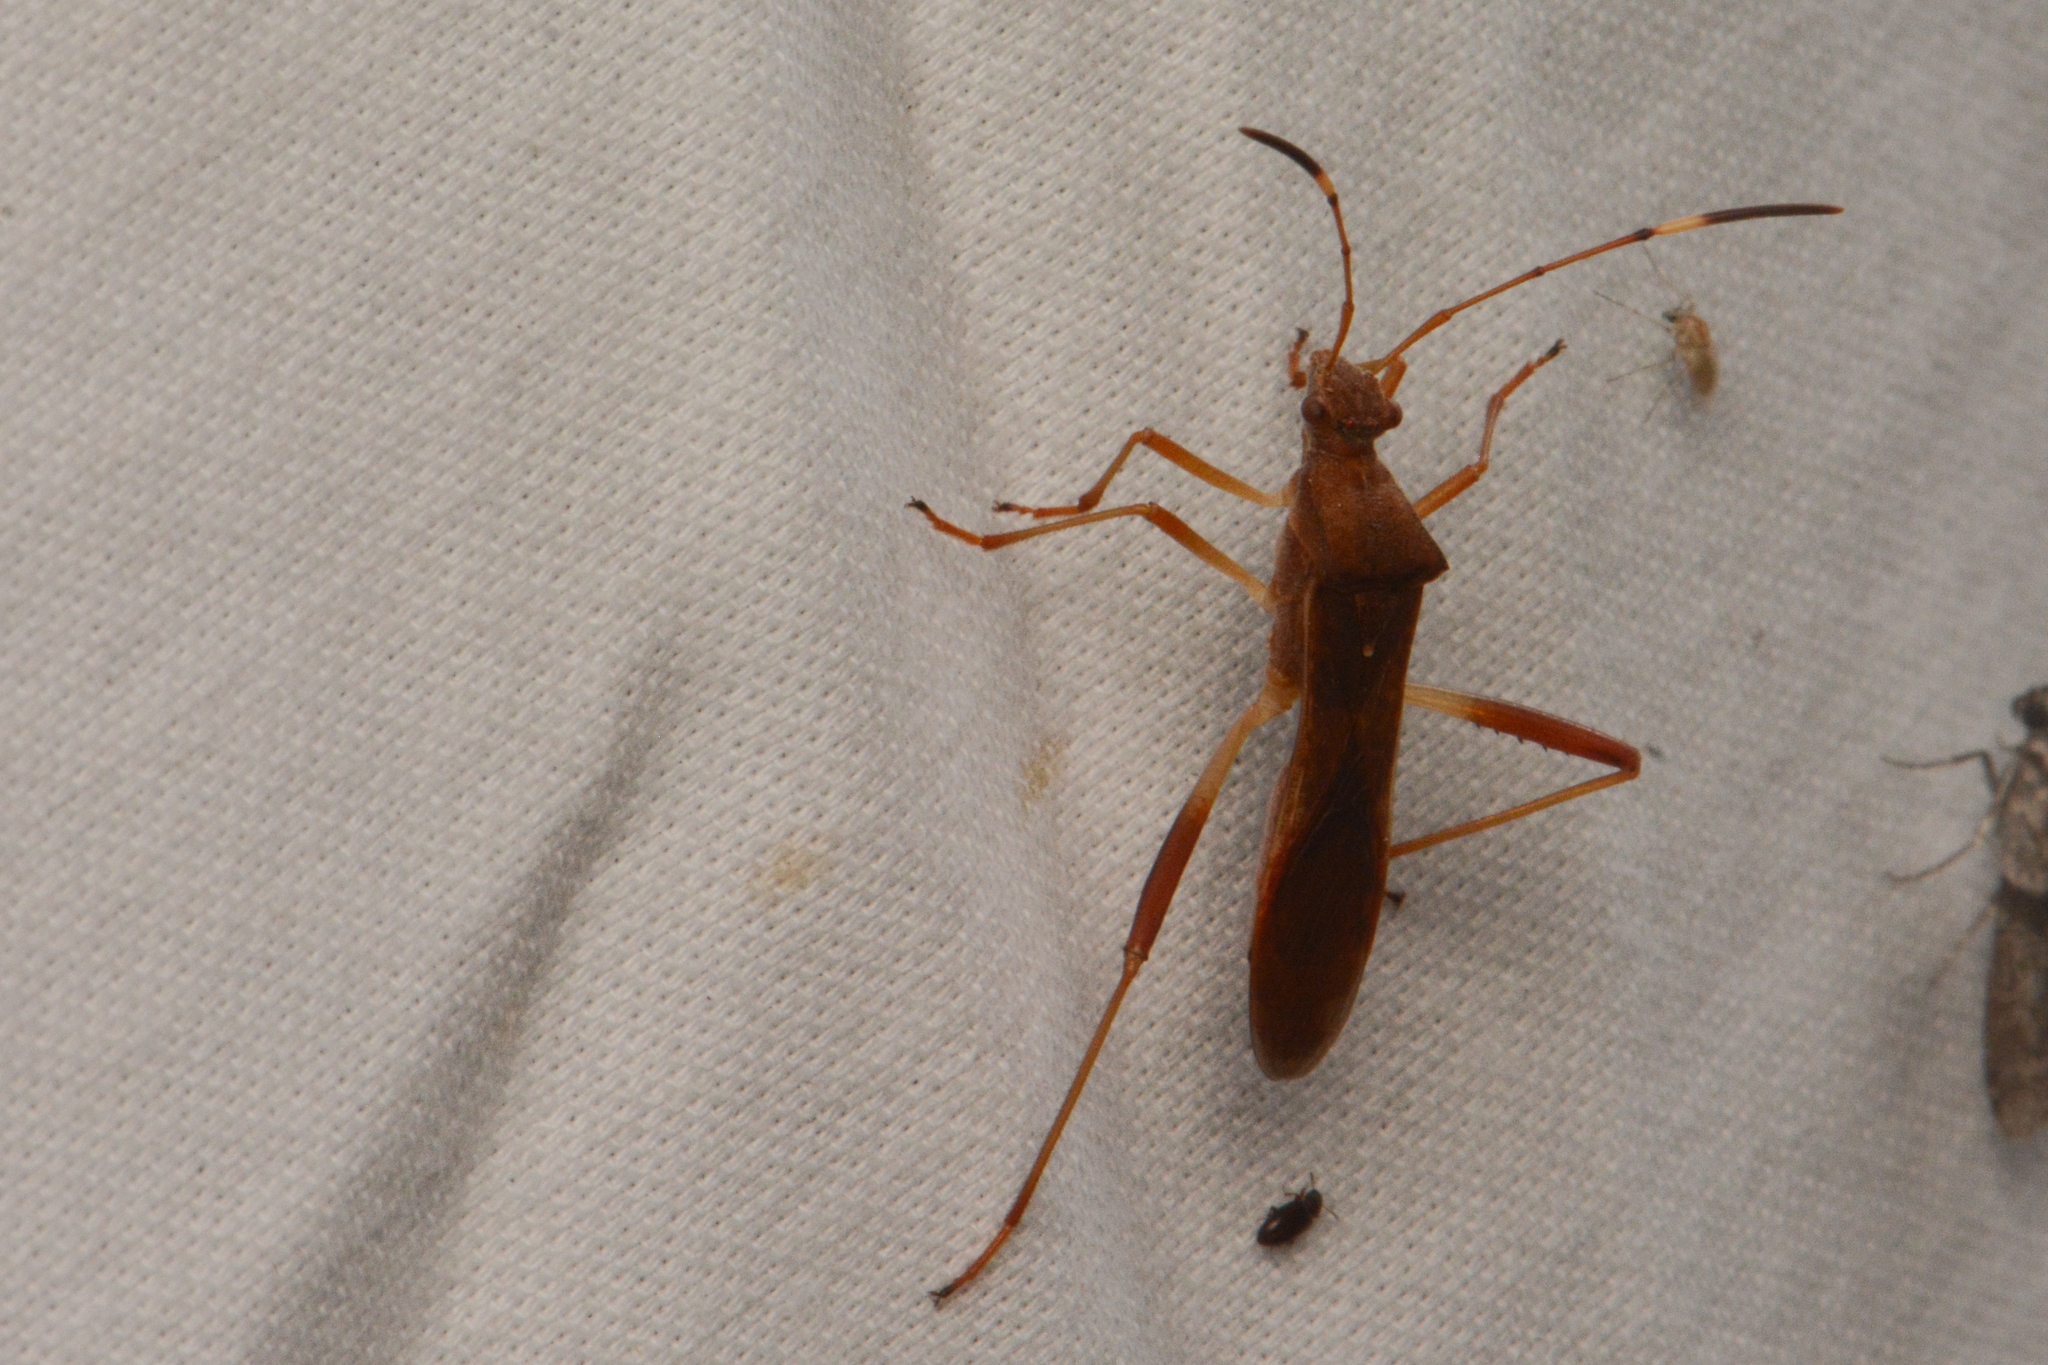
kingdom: Animalia
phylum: Arthropoda
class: Insecta
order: Hemiptera
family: Alydidae
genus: Megalotomus
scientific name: Megalotomus quinquespinosus
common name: Lupine bug
